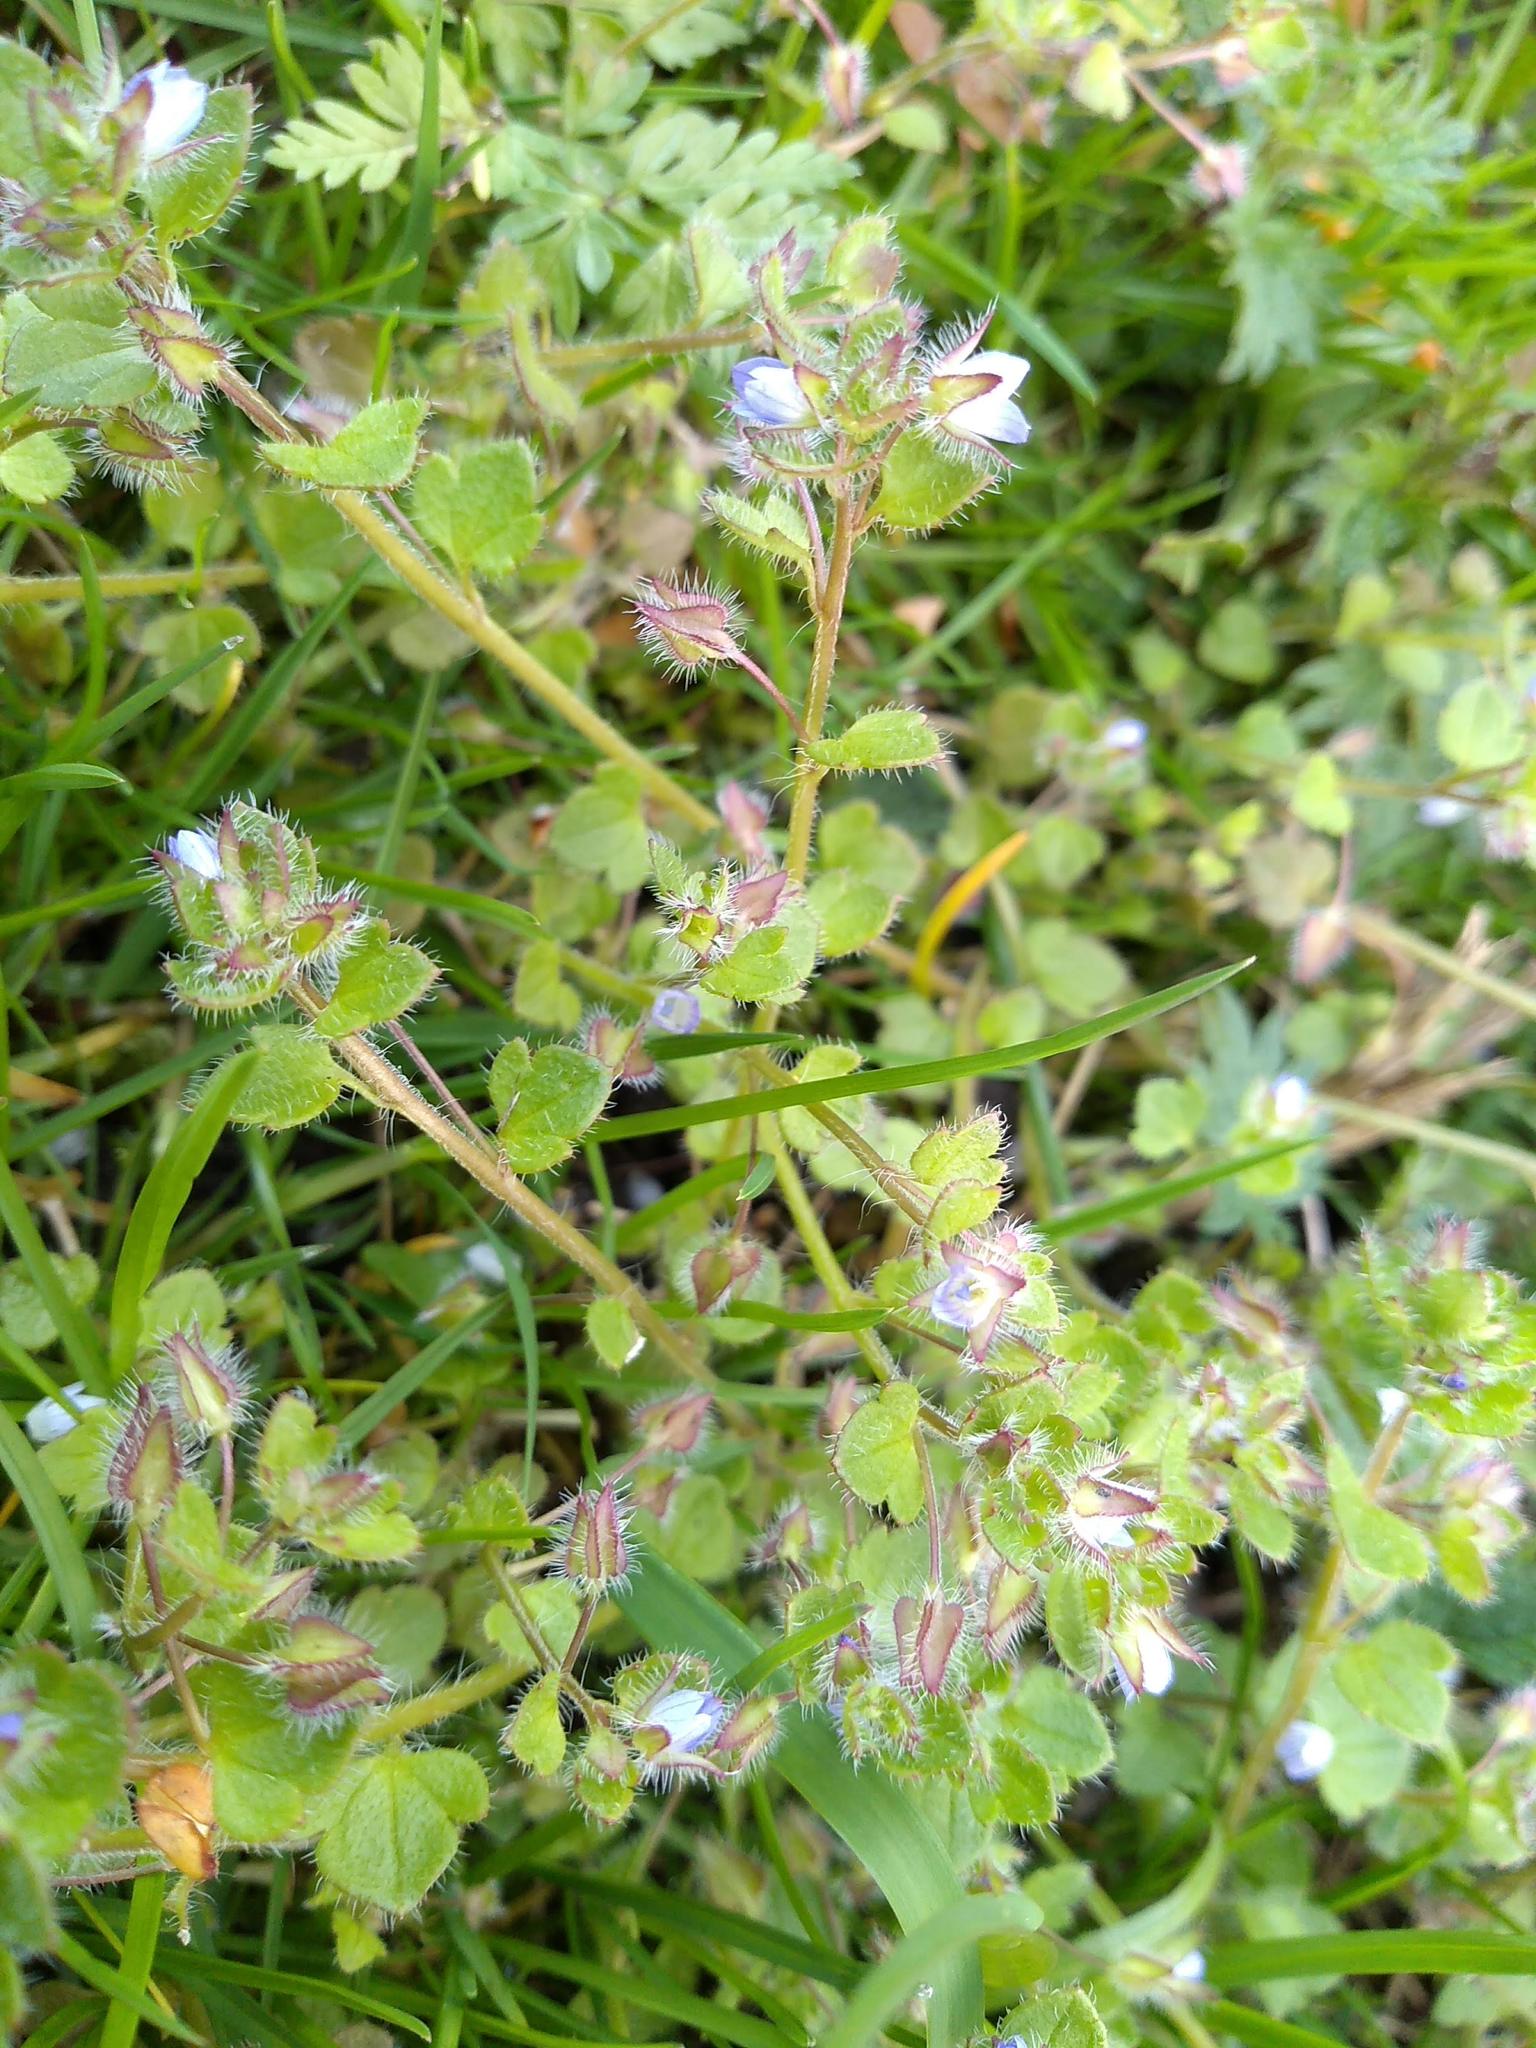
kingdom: Plantae
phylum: Tracheophyta
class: Magnoliopsida
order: Lamiales
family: Plantaginaceae
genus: Veronica
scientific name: Veronica hederifolia
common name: Ivy-leaved speedwell
